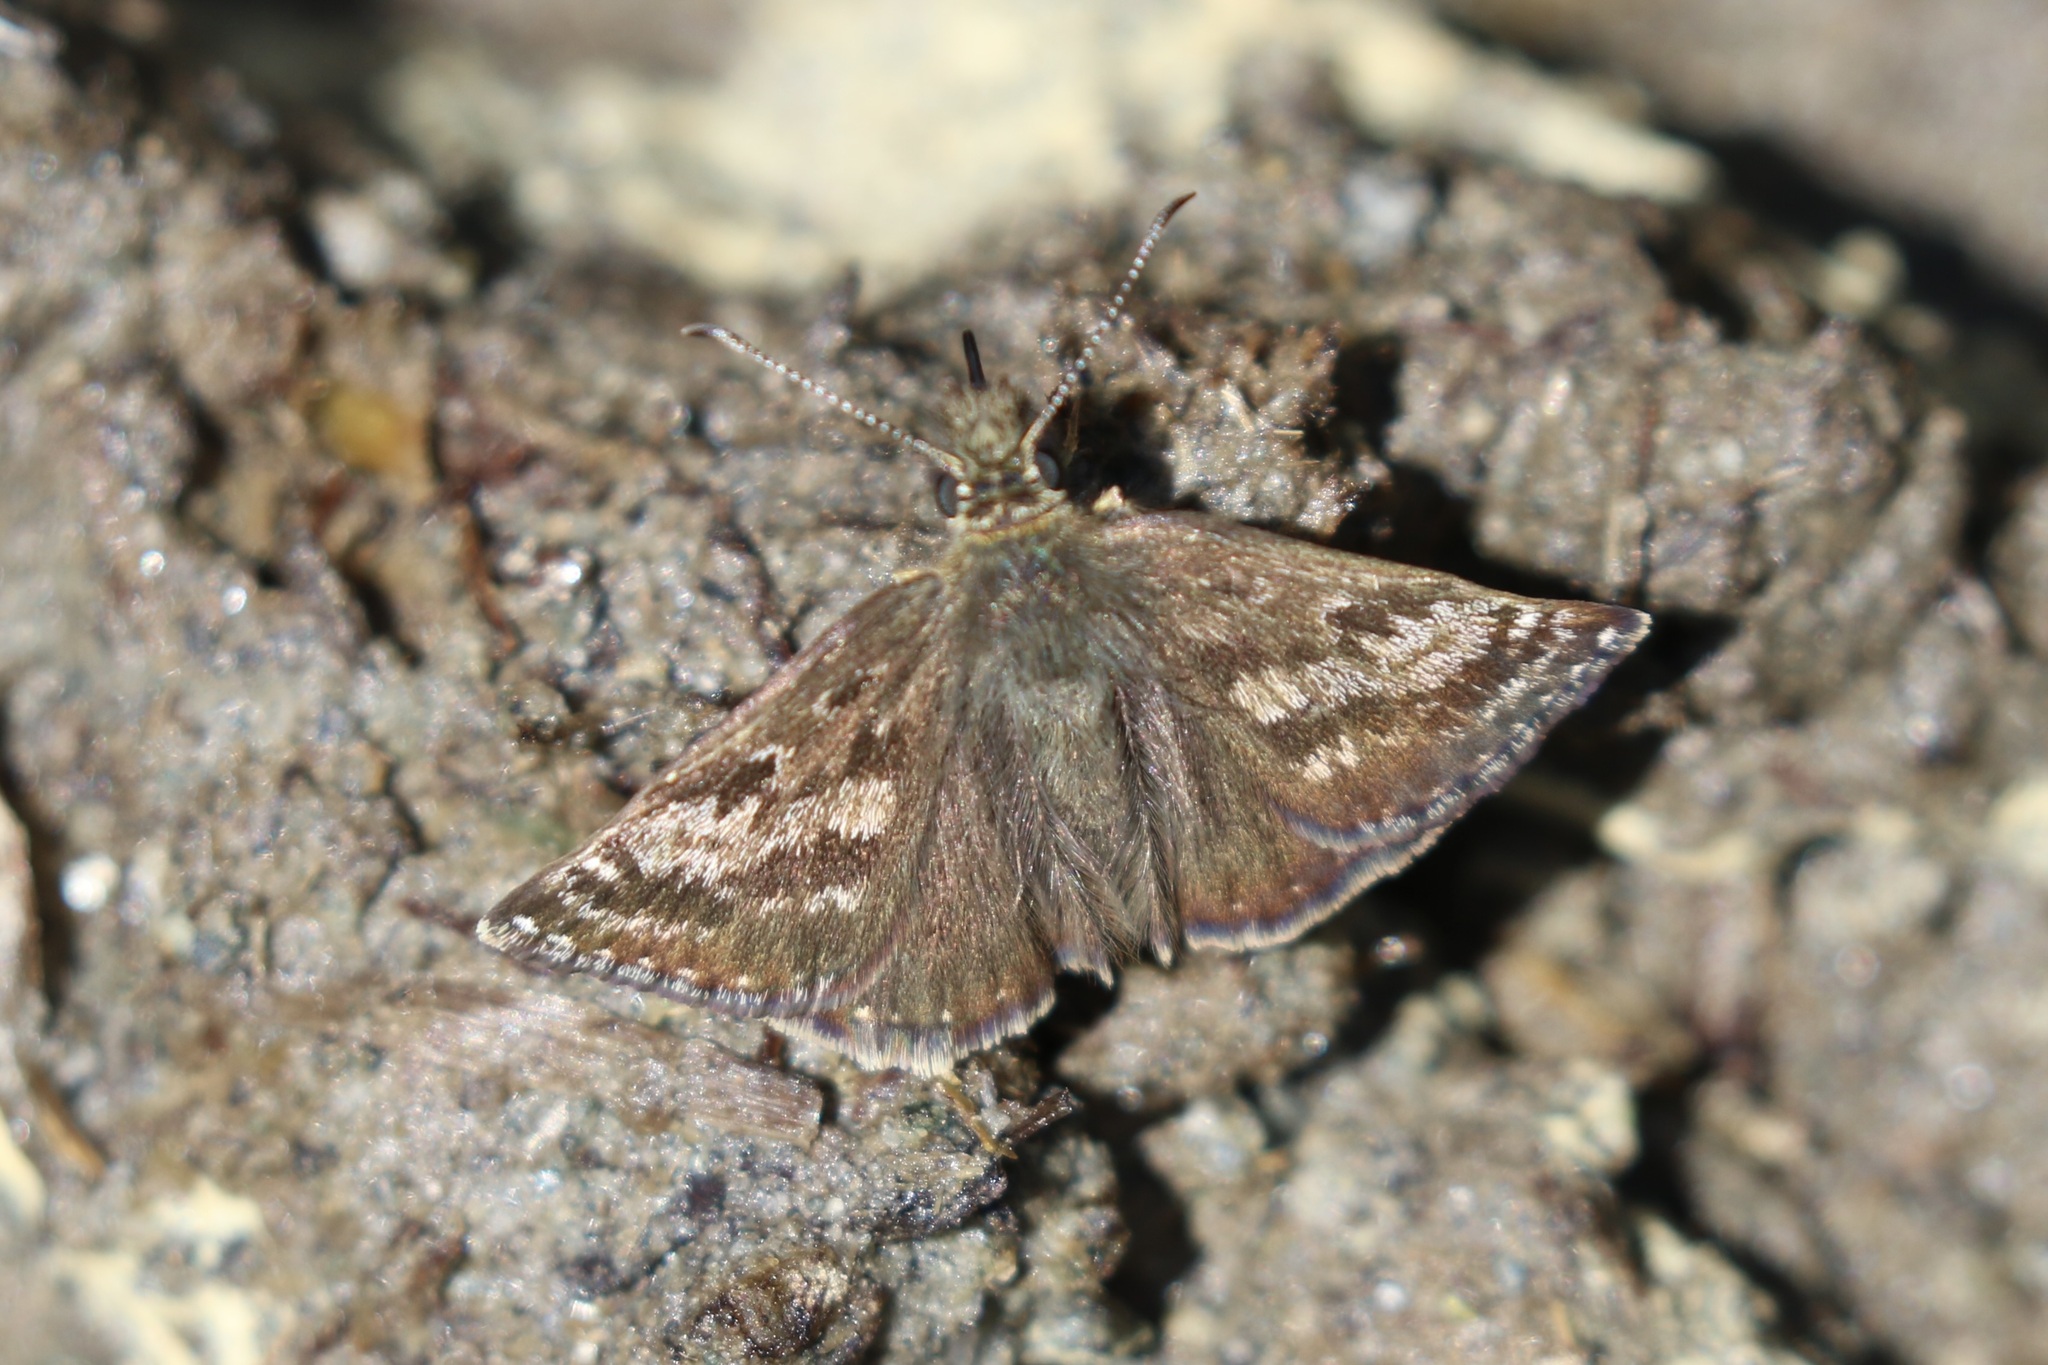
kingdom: Animalia
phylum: Arthropoda
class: Insecta
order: Lepidoptera
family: Hesperiidae
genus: Erynnis
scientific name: Erynnis tages
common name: Dingy skipper
